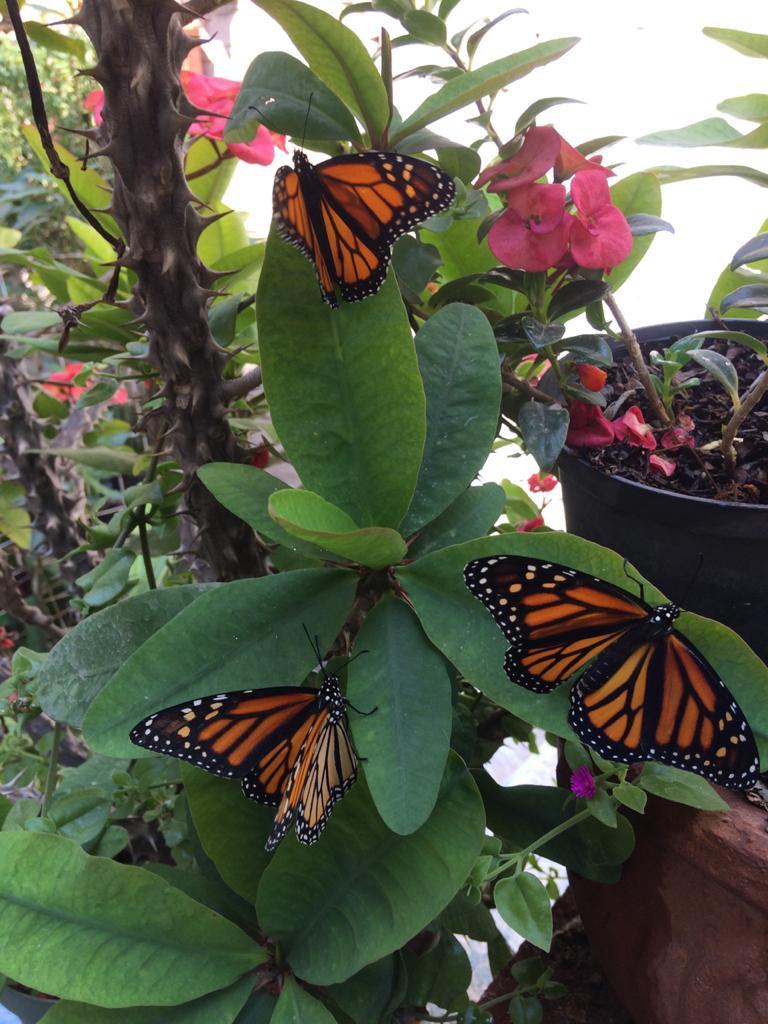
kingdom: Animalia
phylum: Arthropoda
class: Insecta
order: Lepidoptera
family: Nymphalidae
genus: Danaus
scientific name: Danaus plexippus
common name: Monarch
